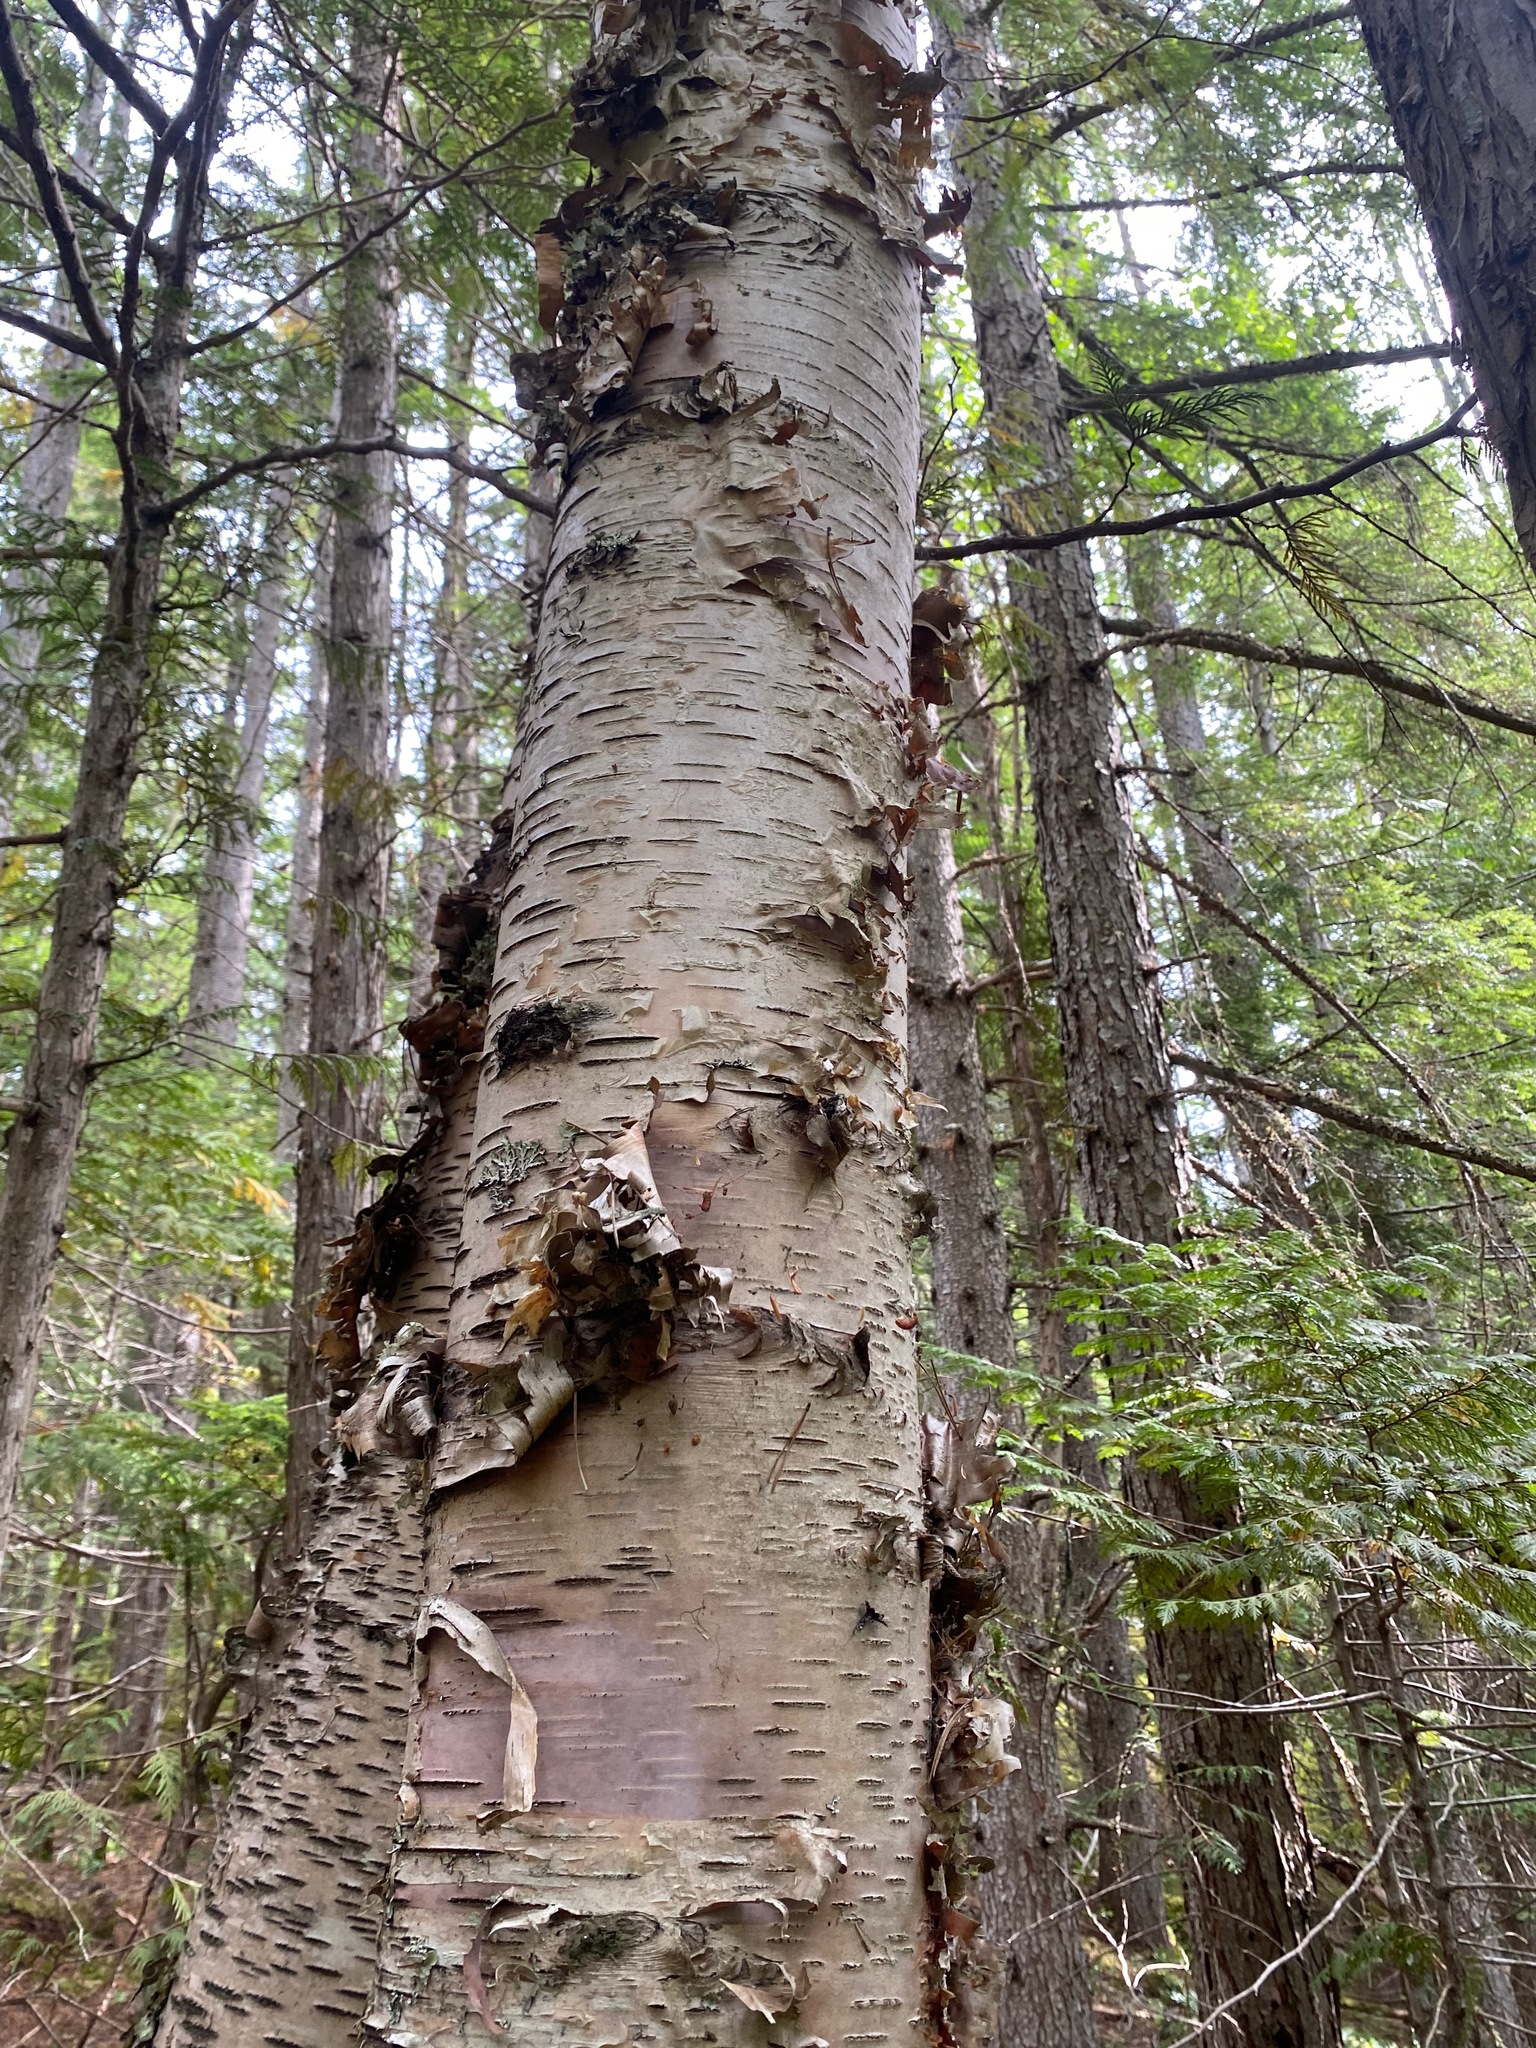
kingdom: Plantae
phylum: Tracheophyta
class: Magnoliopsida
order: Fagales
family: Betulaceae
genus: Betula
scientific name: Betula papyrifera
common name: Paper birch
